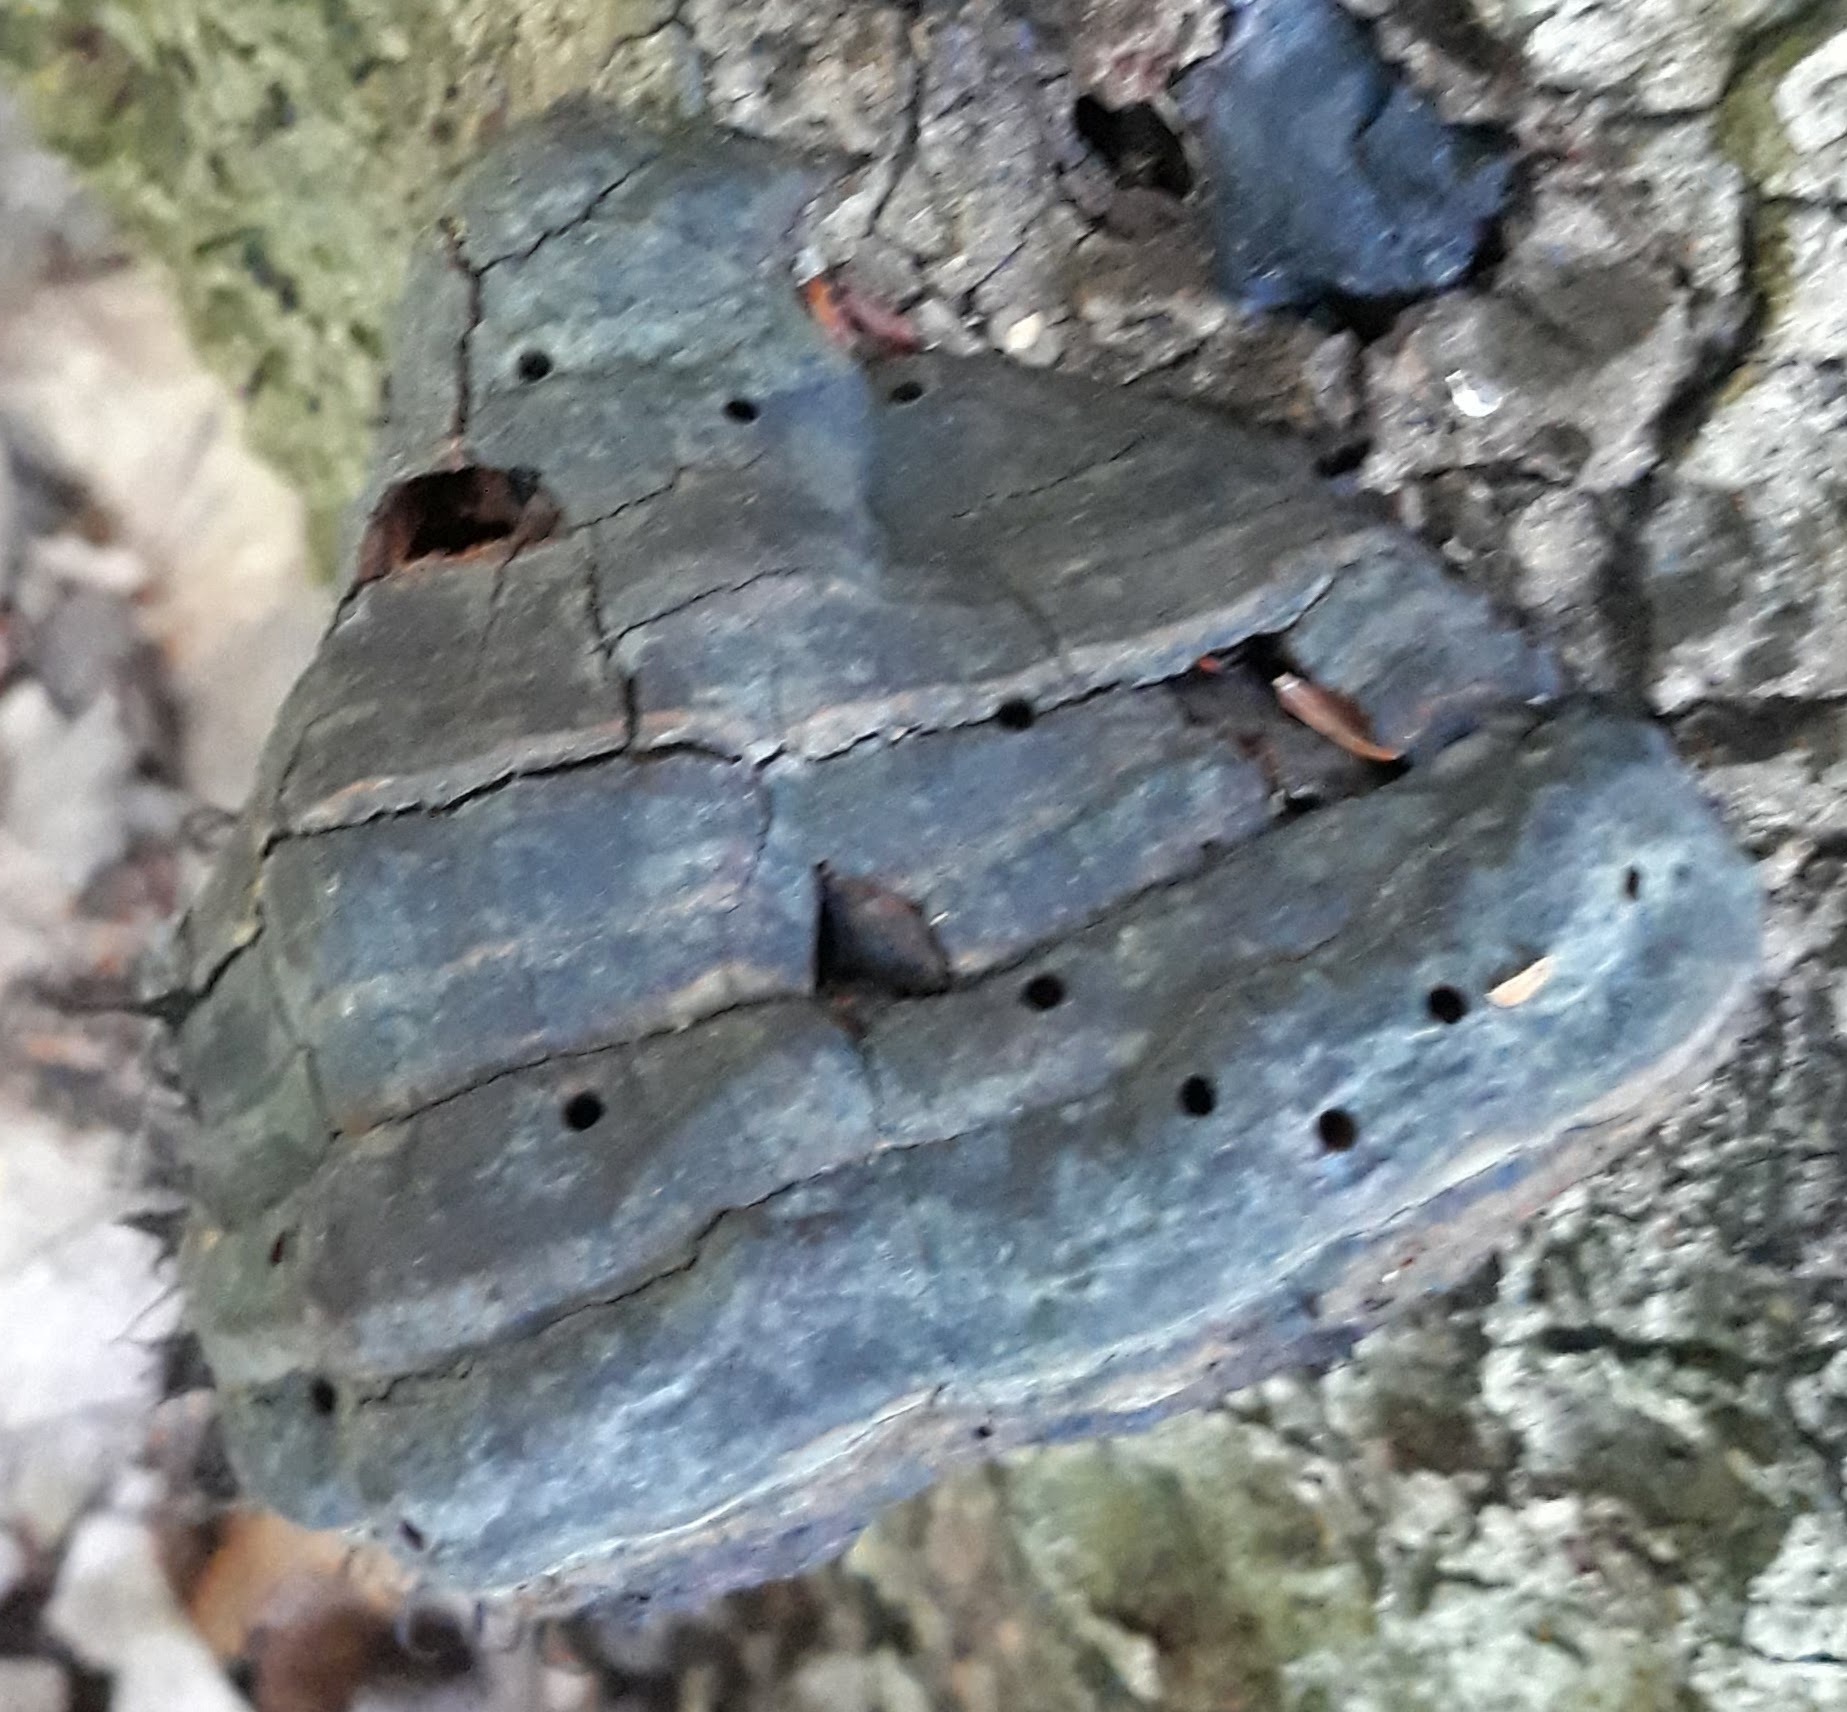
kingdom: Fungi
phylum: Basidiomycota
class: Agaricomycetes
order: Polyporales
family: Polyporaceae
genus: Fomes
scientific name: Fomes fomentarius
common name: Hoof fungus
